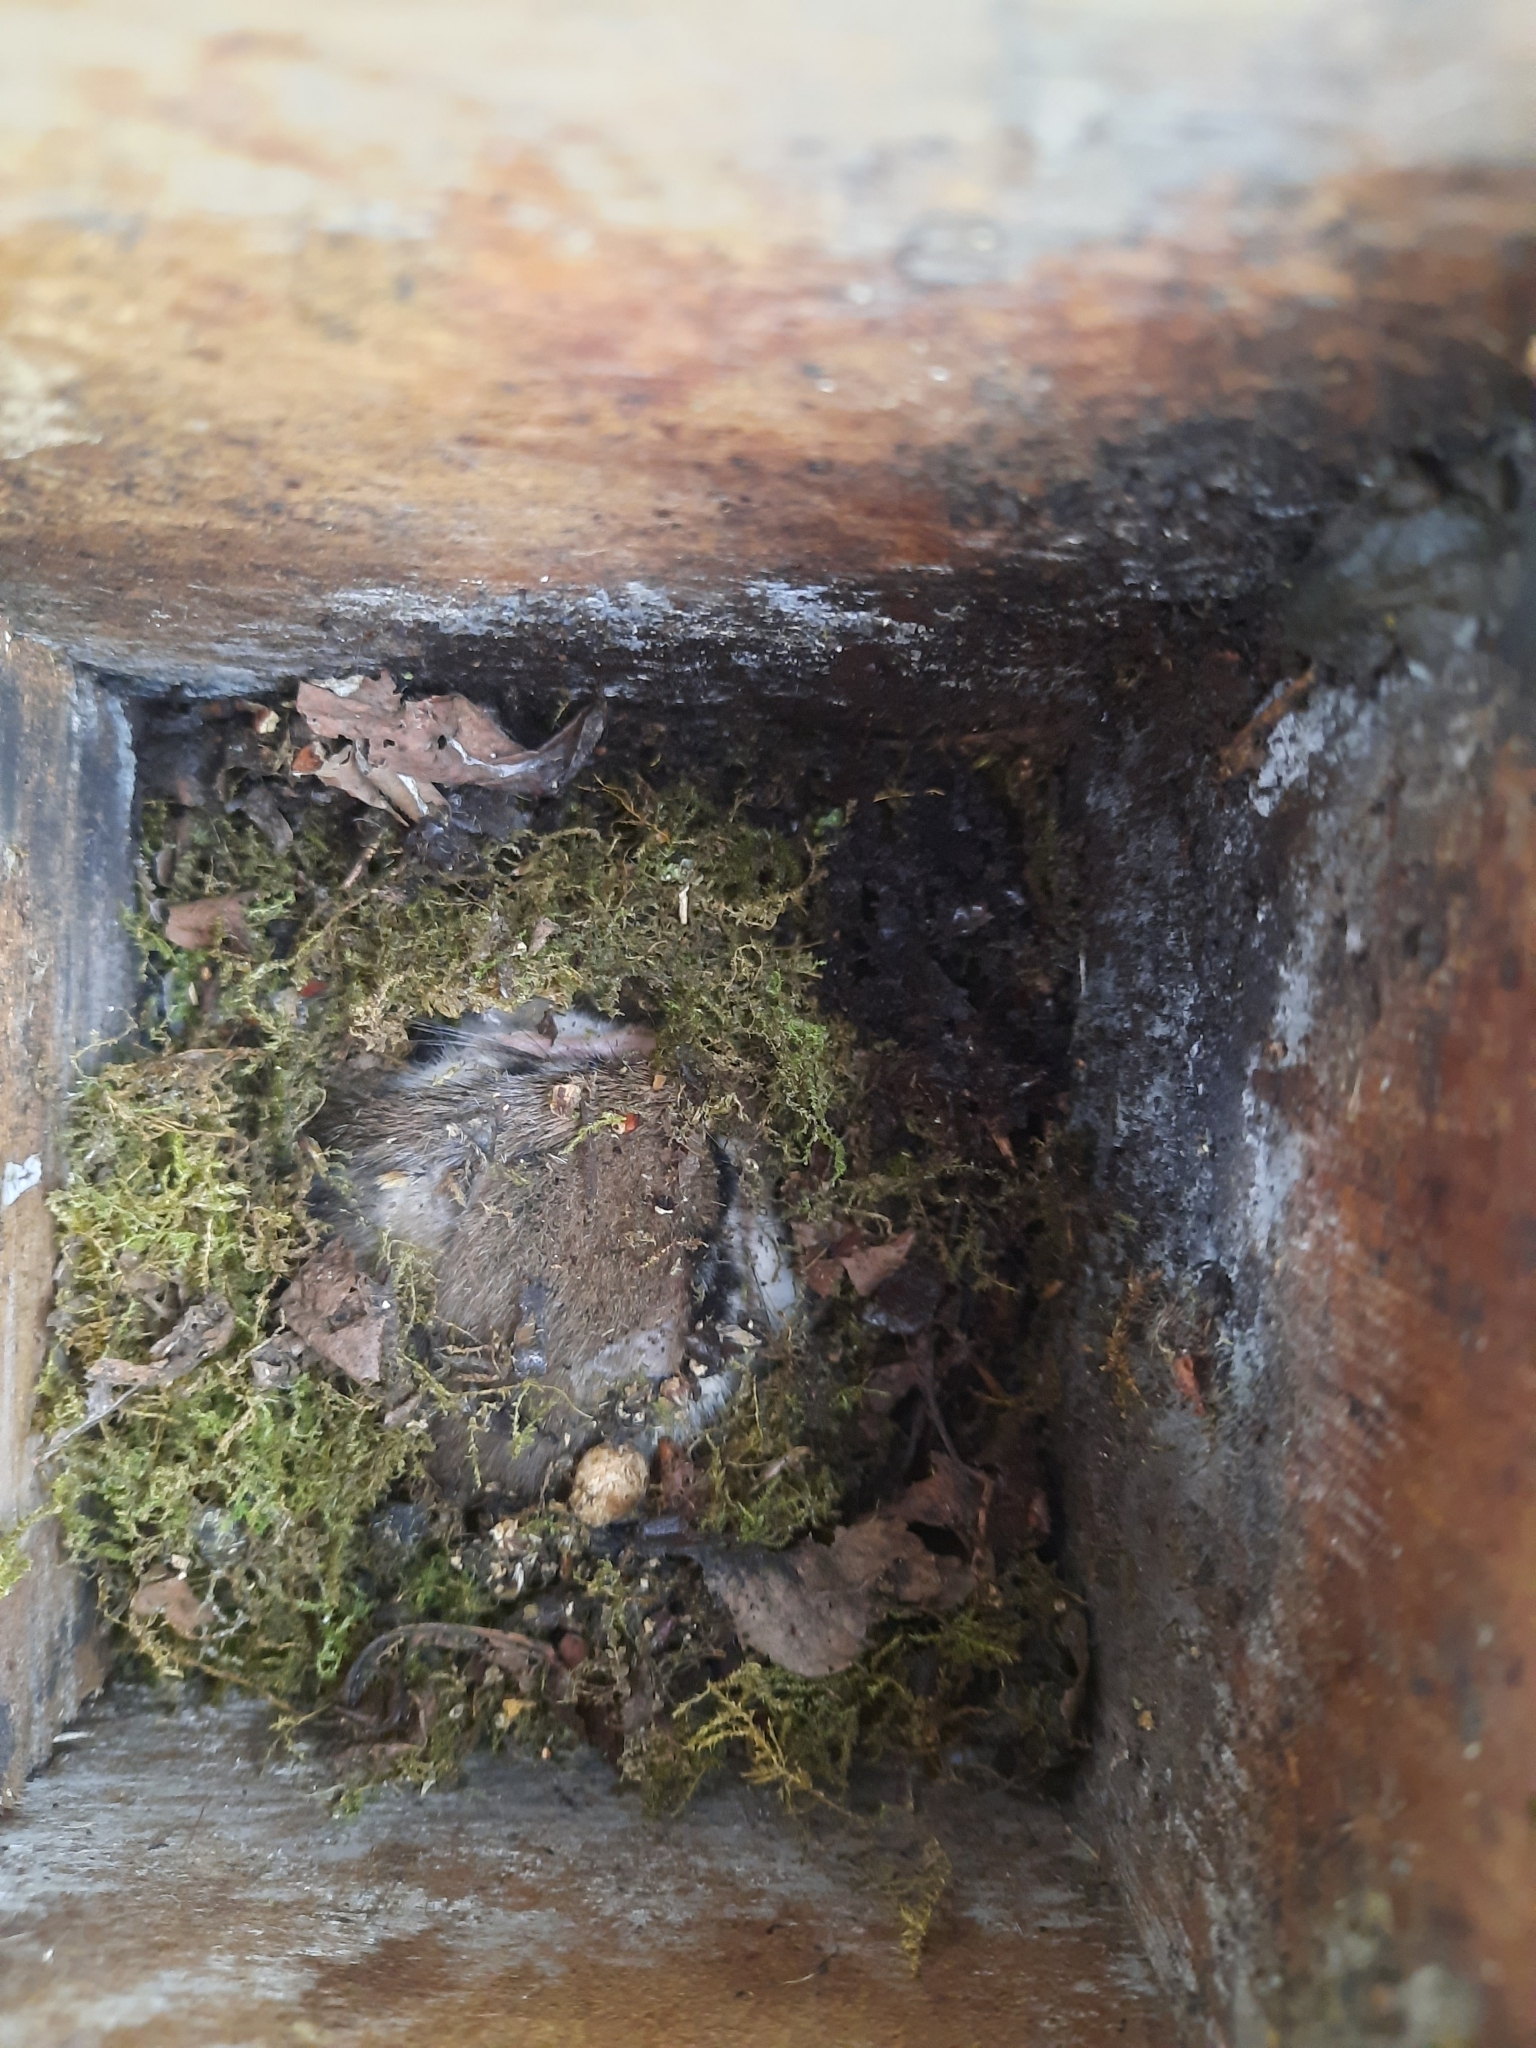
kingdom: Animalia
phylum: Chordata
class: Mammalia
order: Rodentia
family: Gliridae
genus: Eliomys
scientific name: Eliomys quercinus
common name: Garden dormouse
